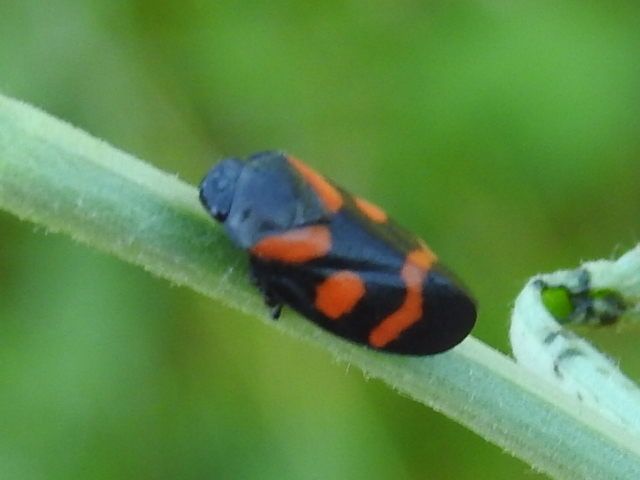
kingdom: Animalia
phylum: Arthropoda
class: Insecta
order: Hemiptera
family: Cercopidae
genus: Cercopis
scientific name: Cercopis
